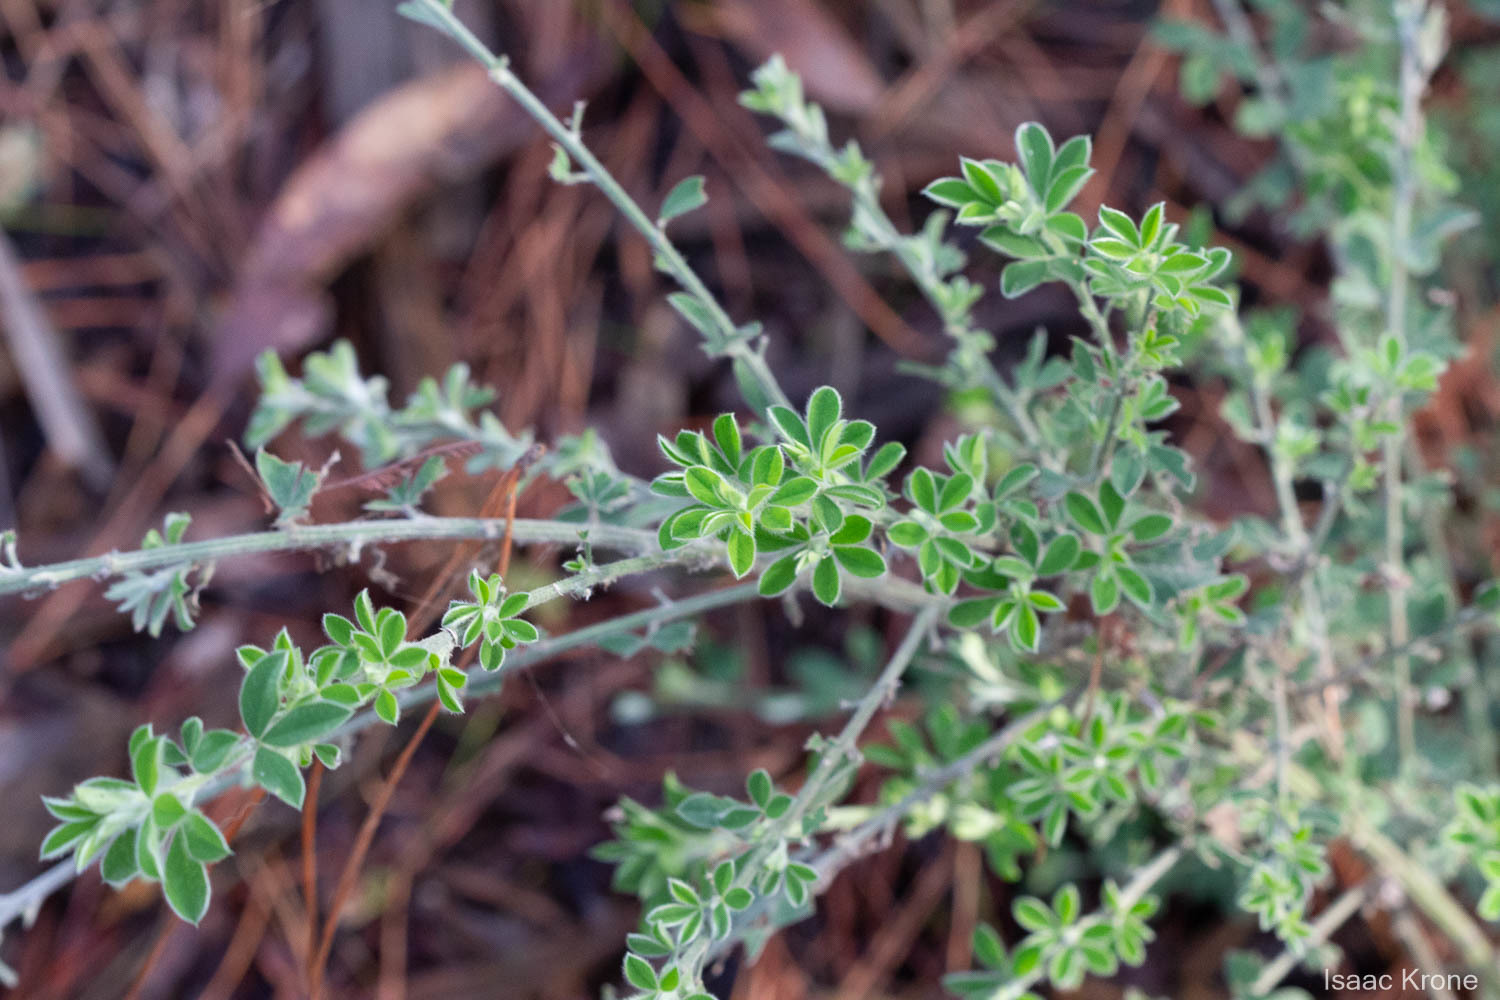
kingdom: Plantae
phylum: Tracheophyta
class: Magnoliopsida
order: Fabales
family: Fabaceae
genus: Genista
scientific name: Genista monspessulana
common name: Montpellier broom
